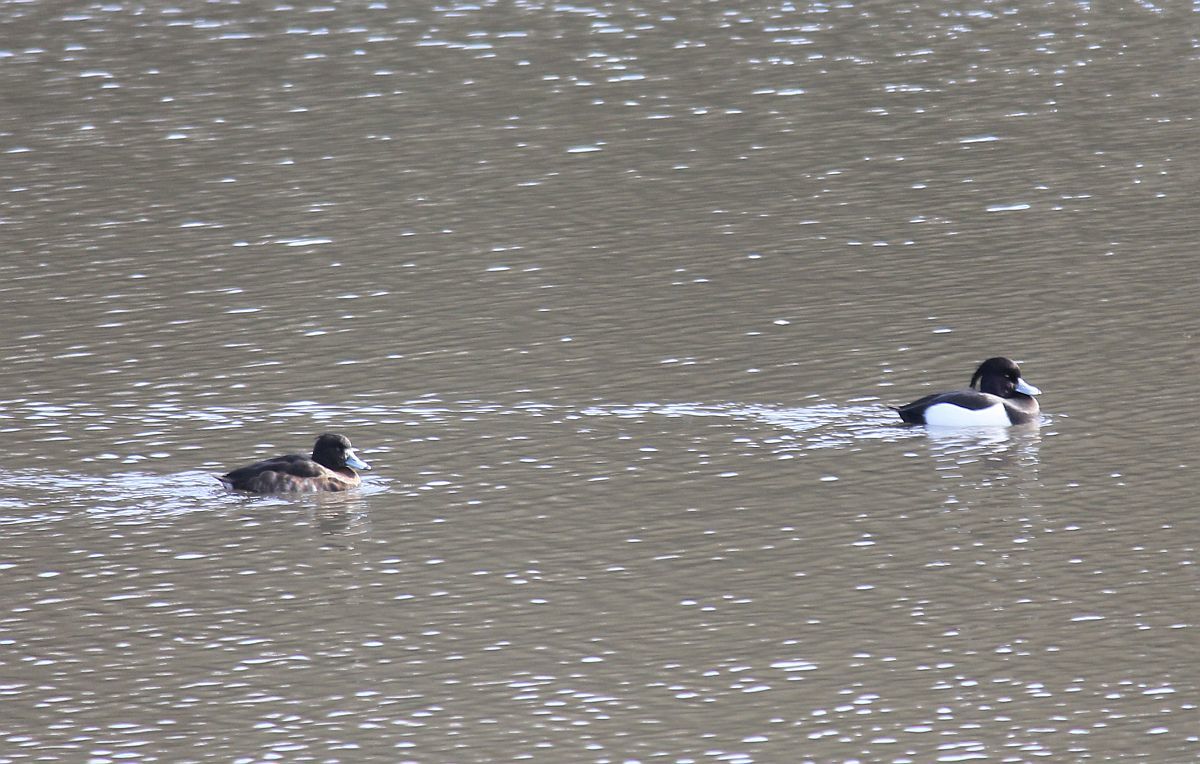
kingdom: Animalia
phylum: Chordata
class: Aves
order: Anseriformes
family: Anatidae
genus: Aythya
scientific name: Aythya fuligula
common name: Tufted duck
